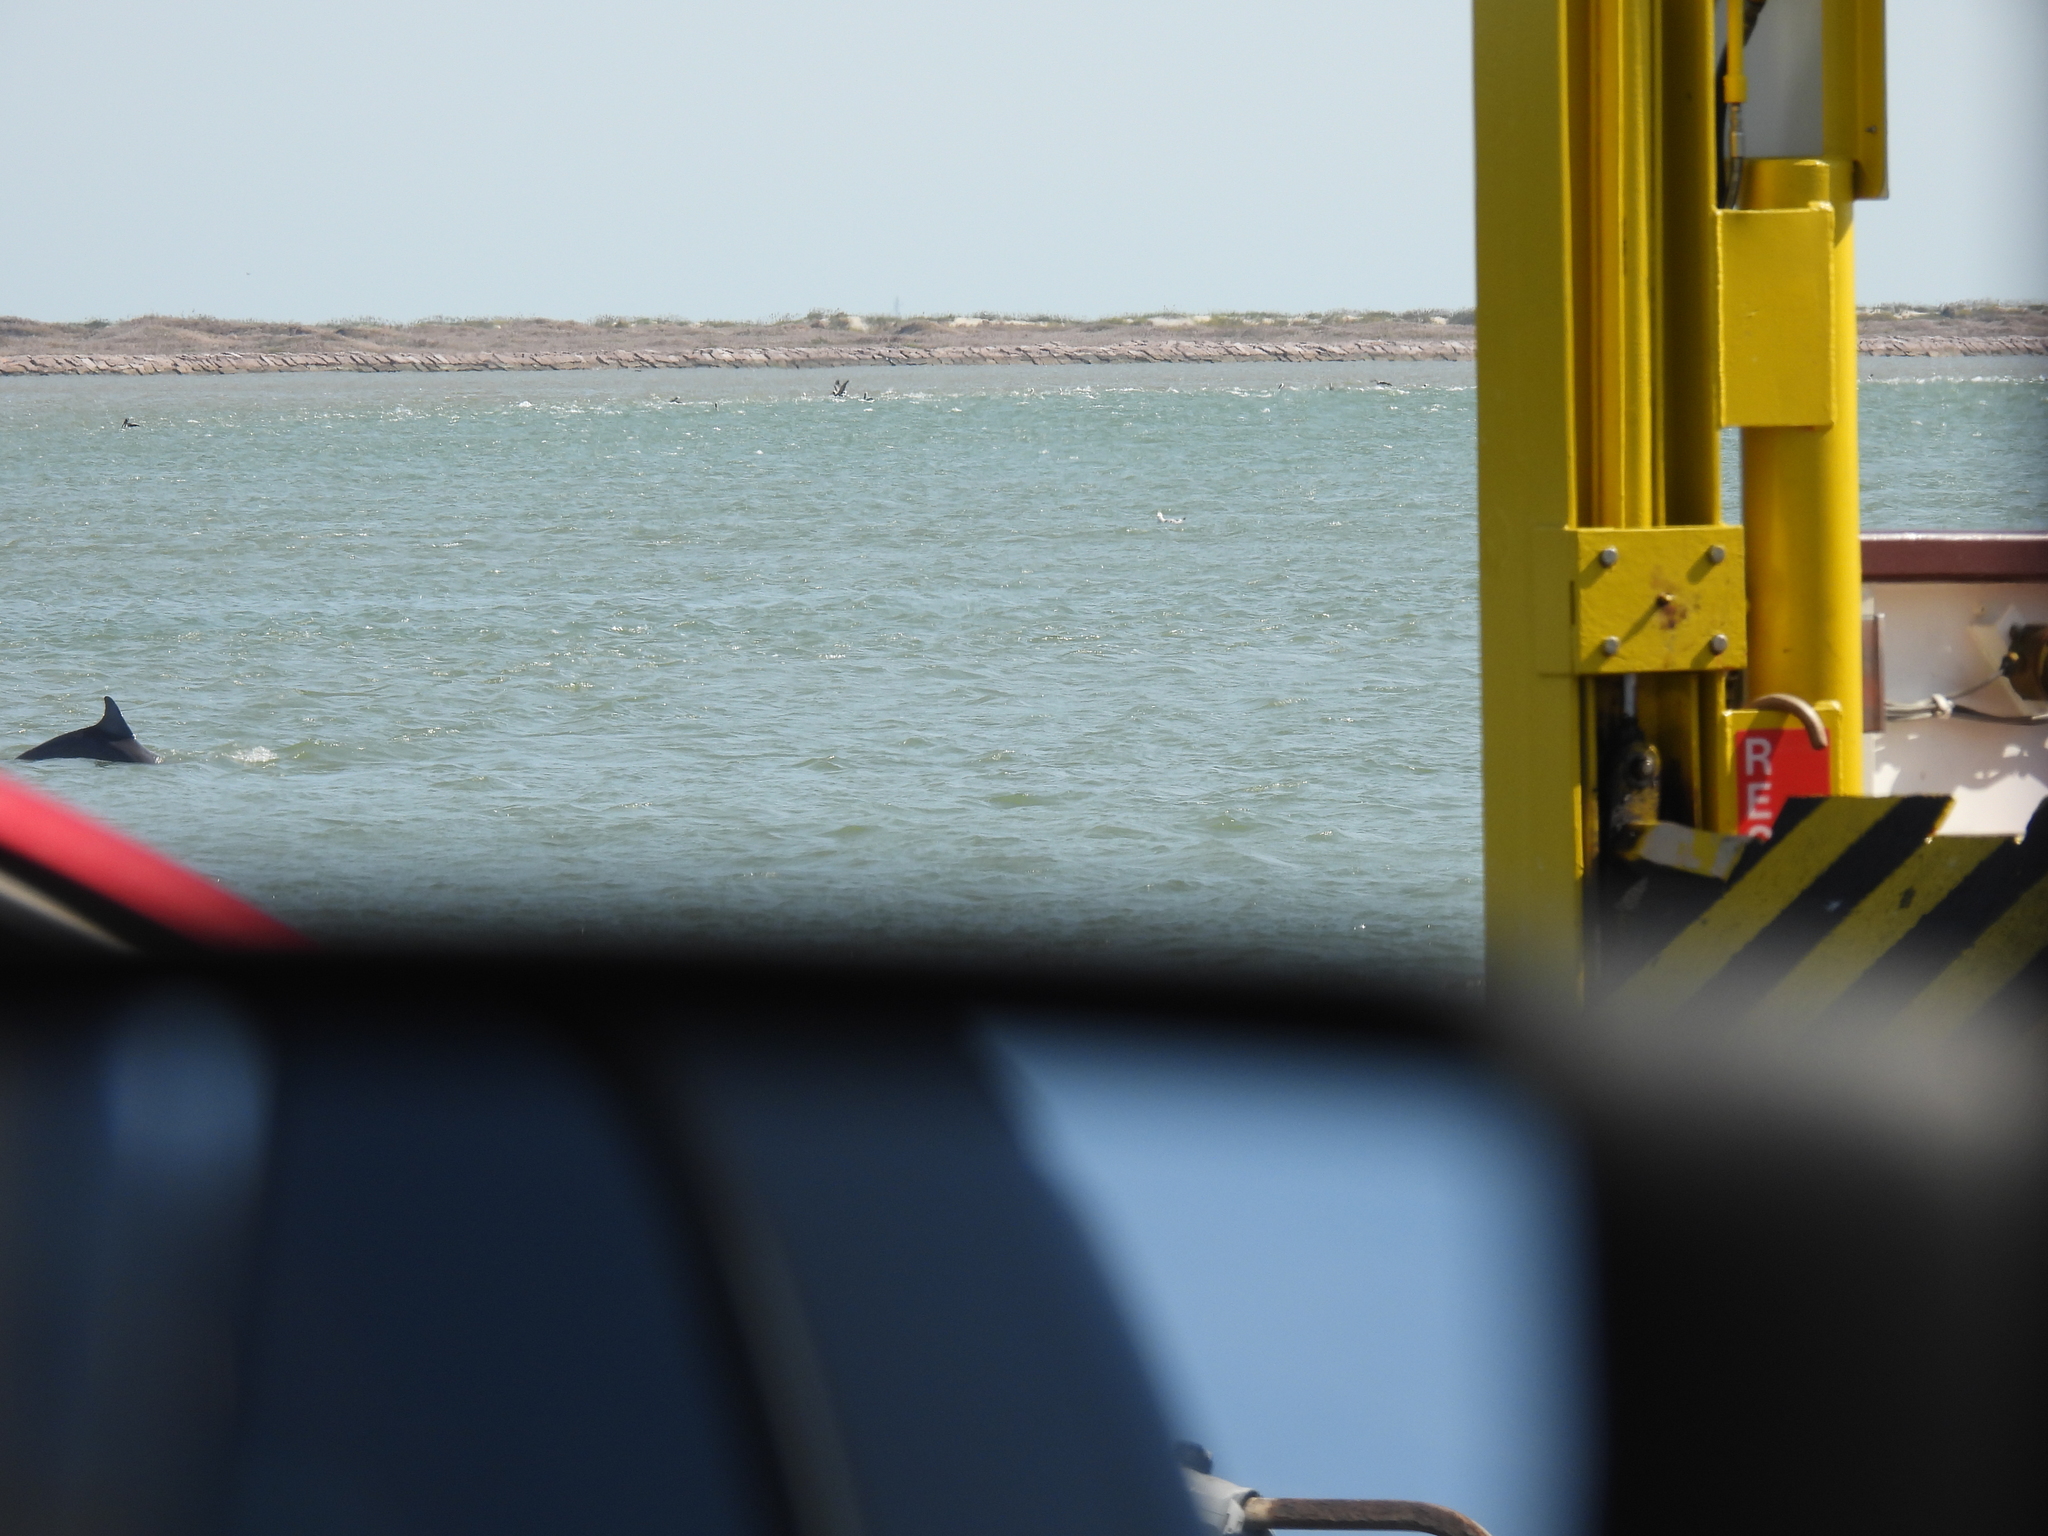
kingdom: Animalia
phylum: Chordata
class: Mammalia
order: Cetacea
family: Delphinidae
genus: Tursiops
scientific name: Tursiops truncatus
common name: Bottlenose dolphin
